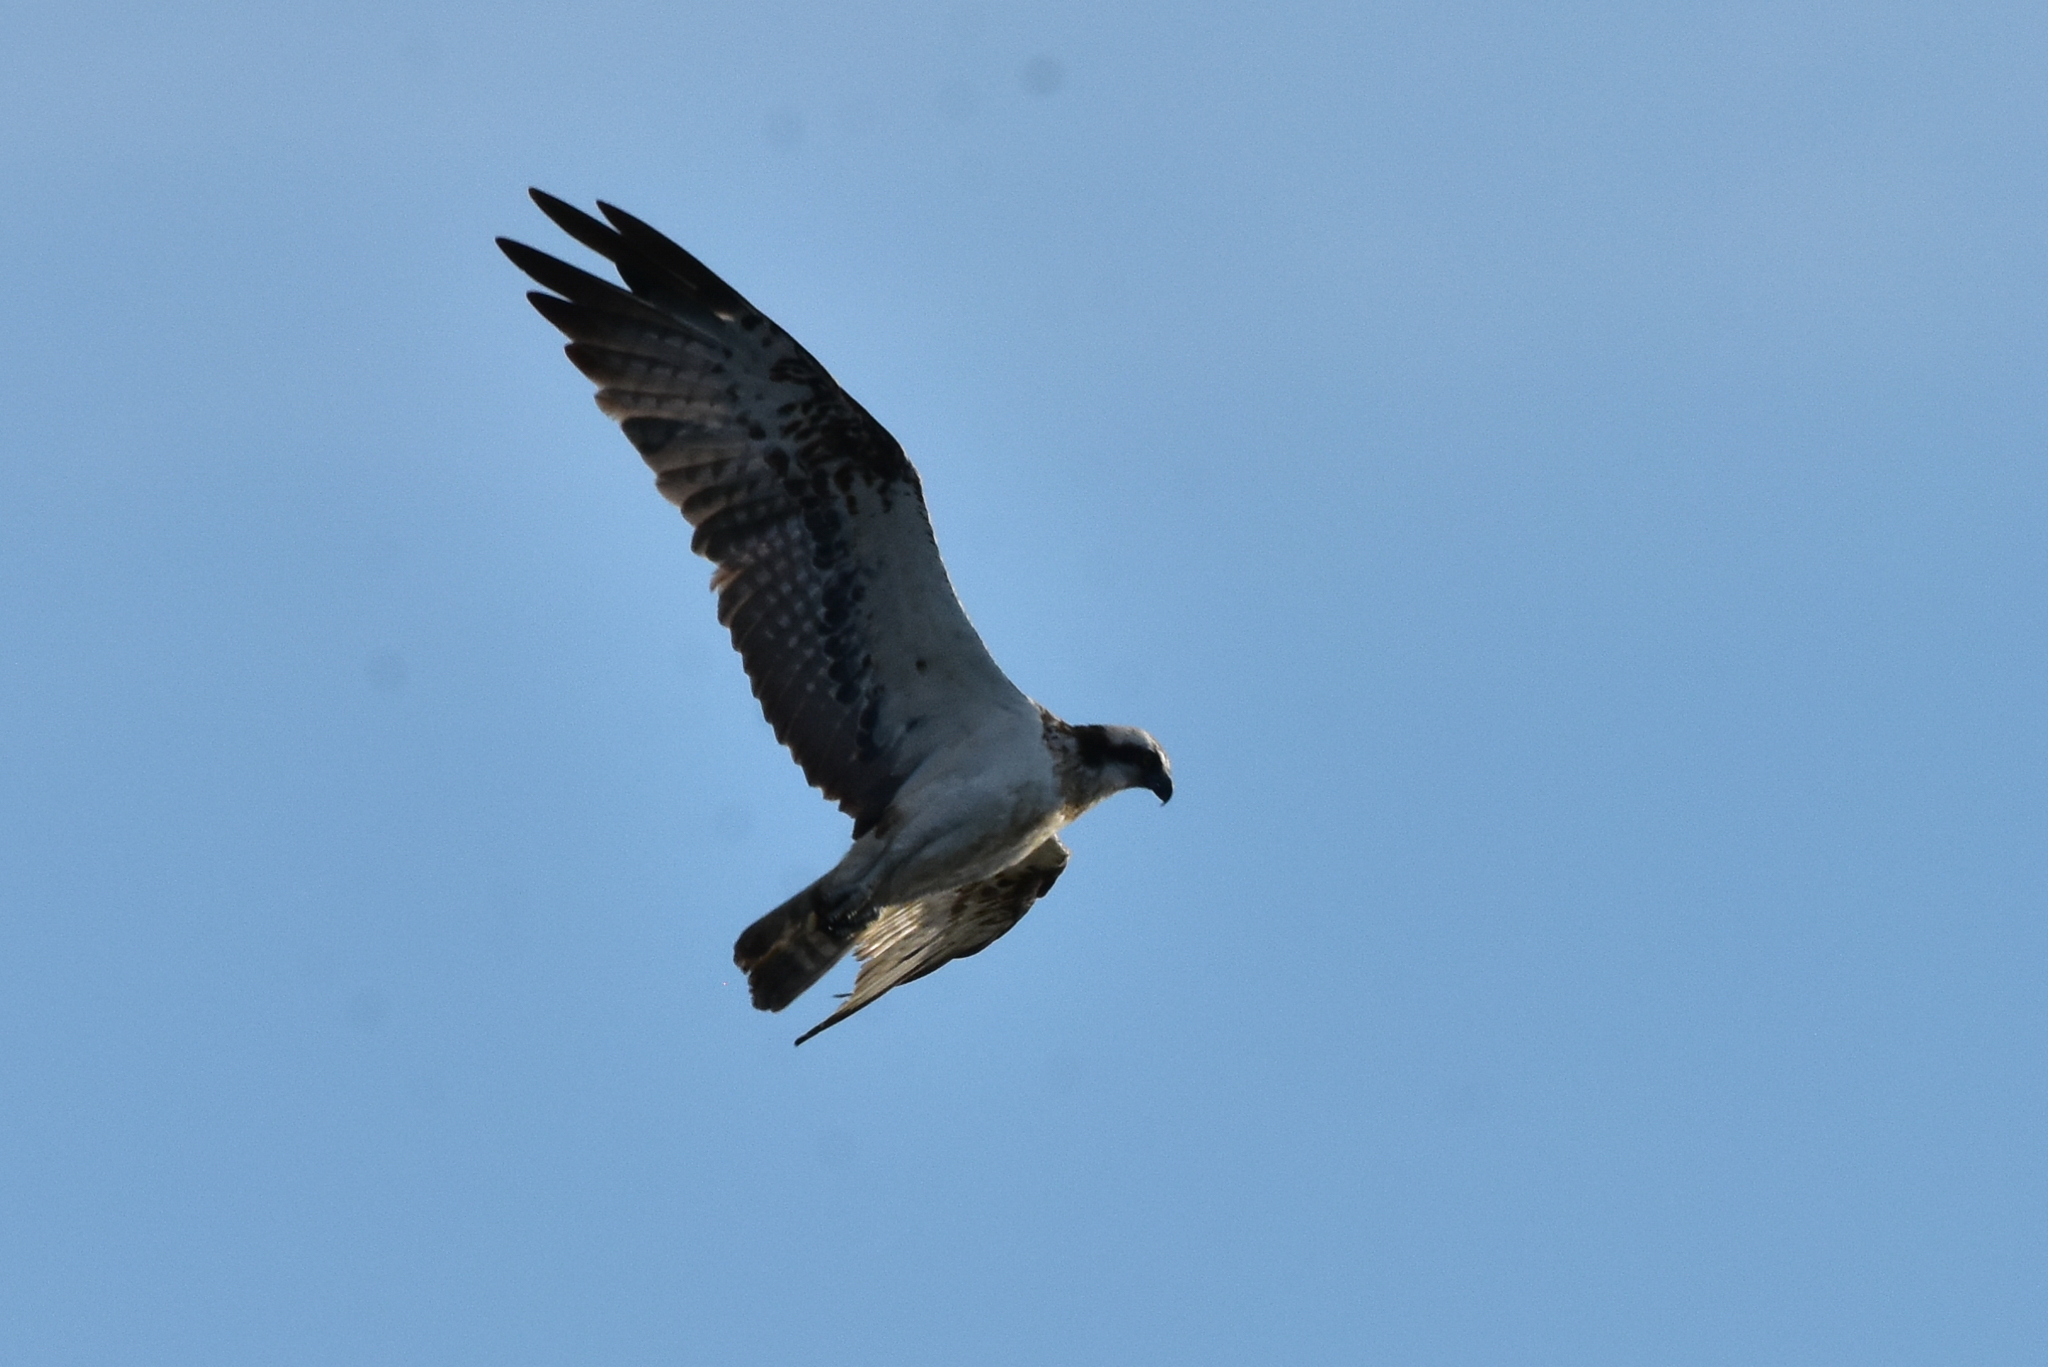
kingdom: Animalia
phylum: Chordata
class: Aves
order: Accipitriformes
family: Pandionidae
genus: Pandion
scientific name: Pandion haliaetus
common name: Osprey
